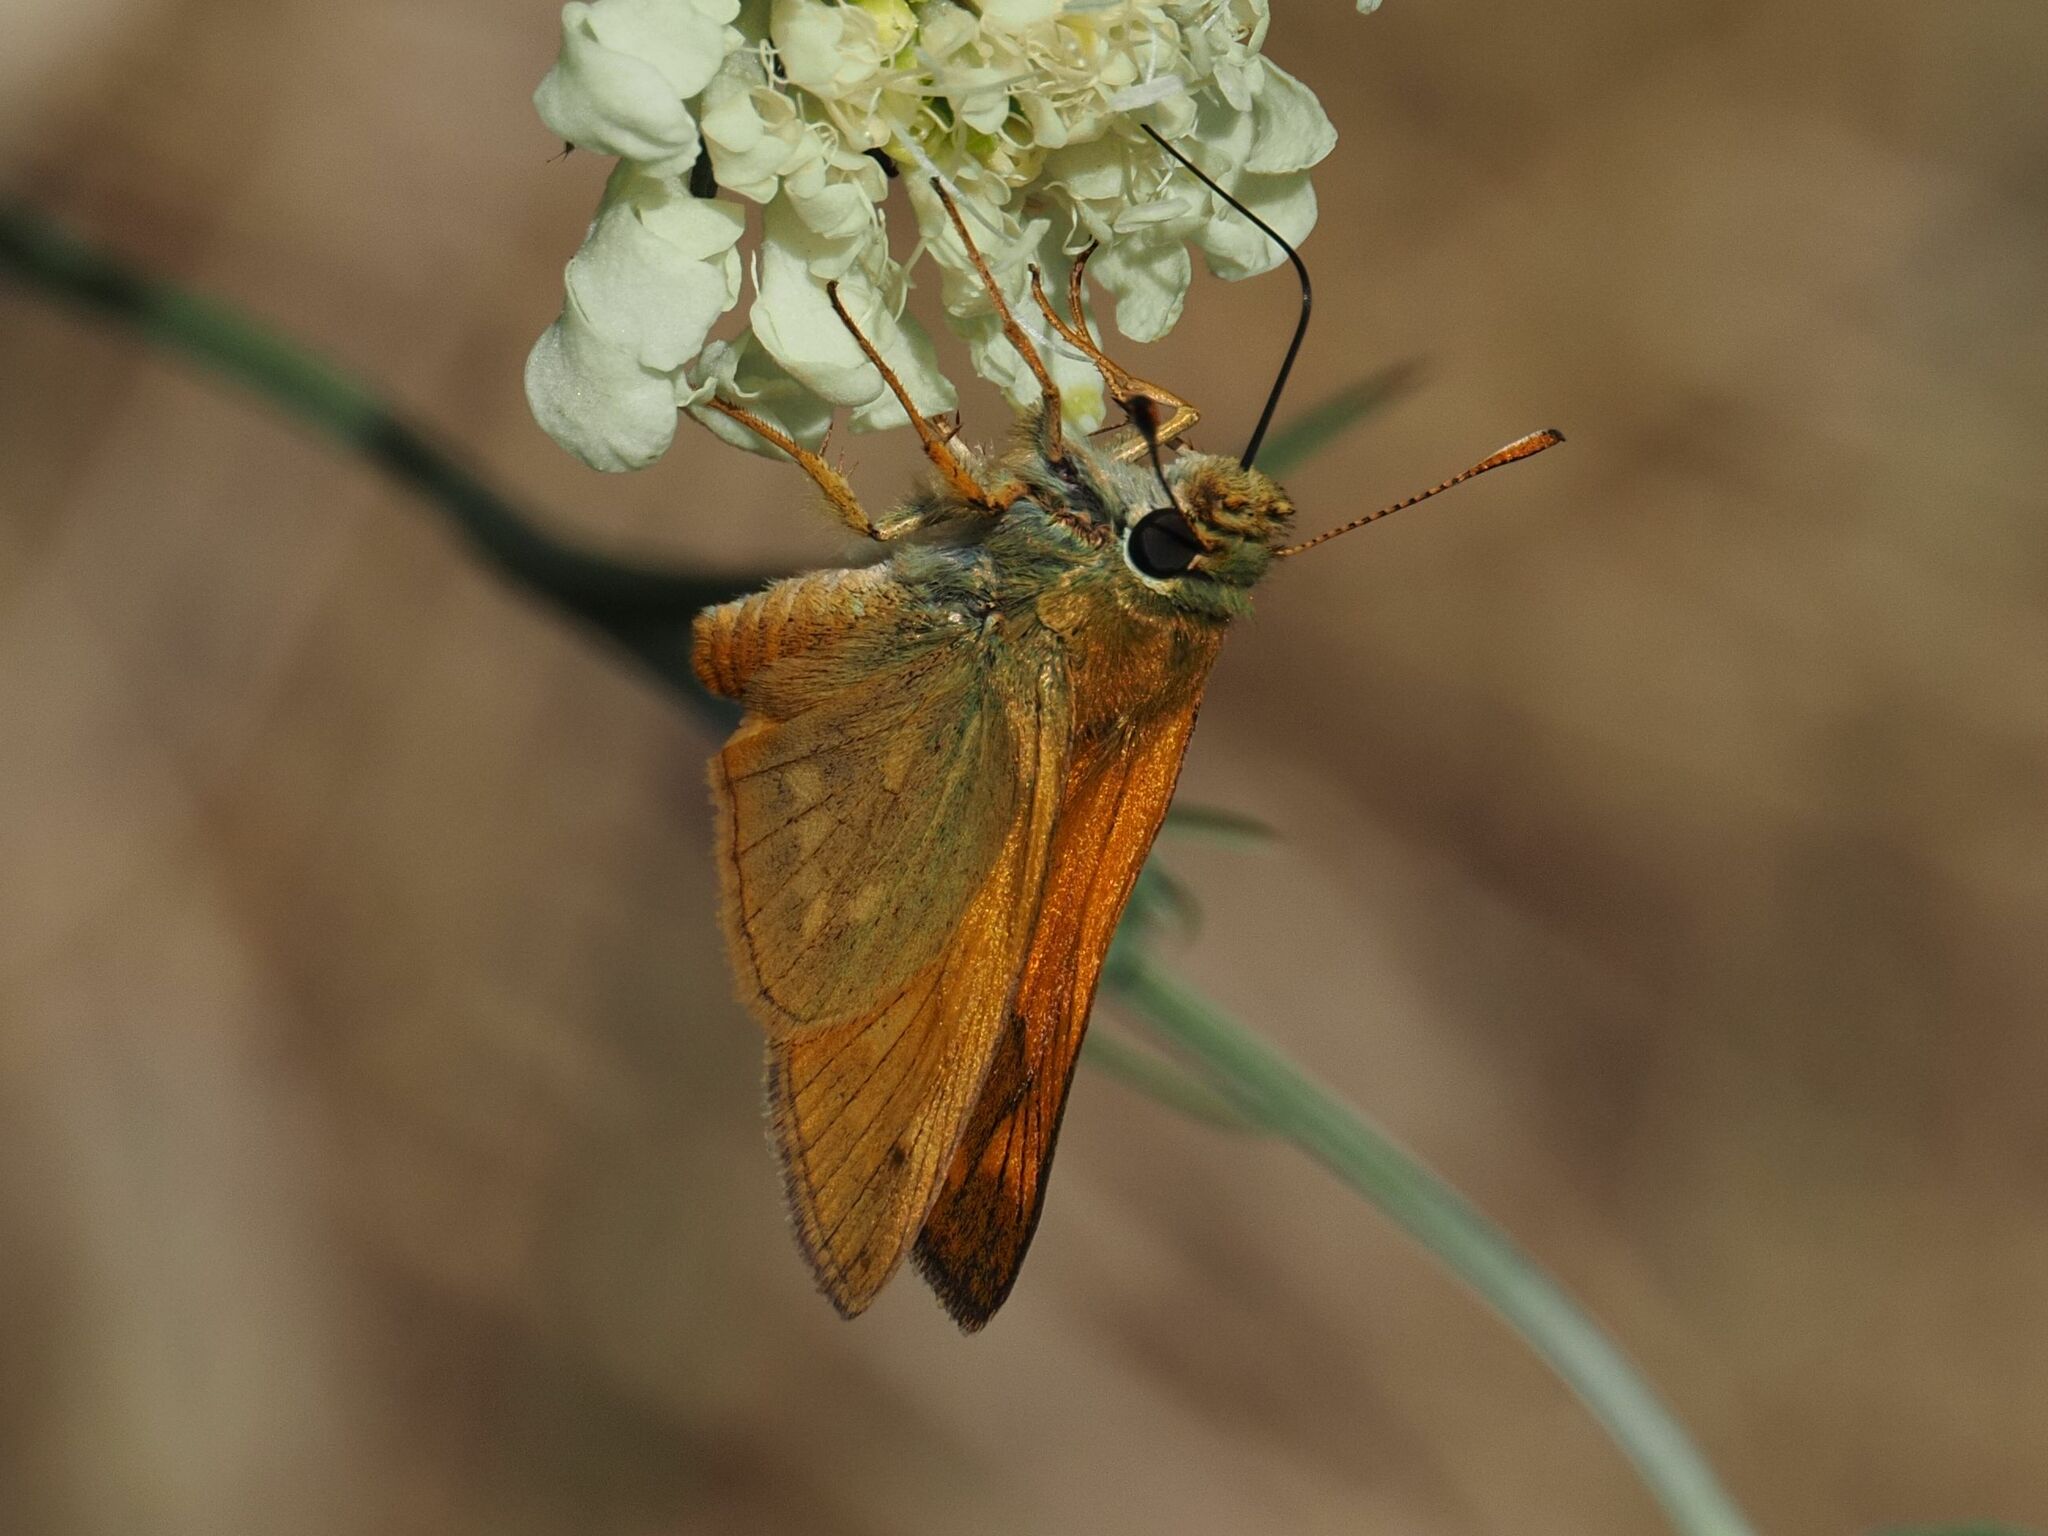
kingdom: Animalia
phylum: Arthropoda
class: Insecta
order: Lepidoptera
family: Hesperiidae
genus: Ochlodes
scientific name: Ochlodes venata
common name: Large skipper
